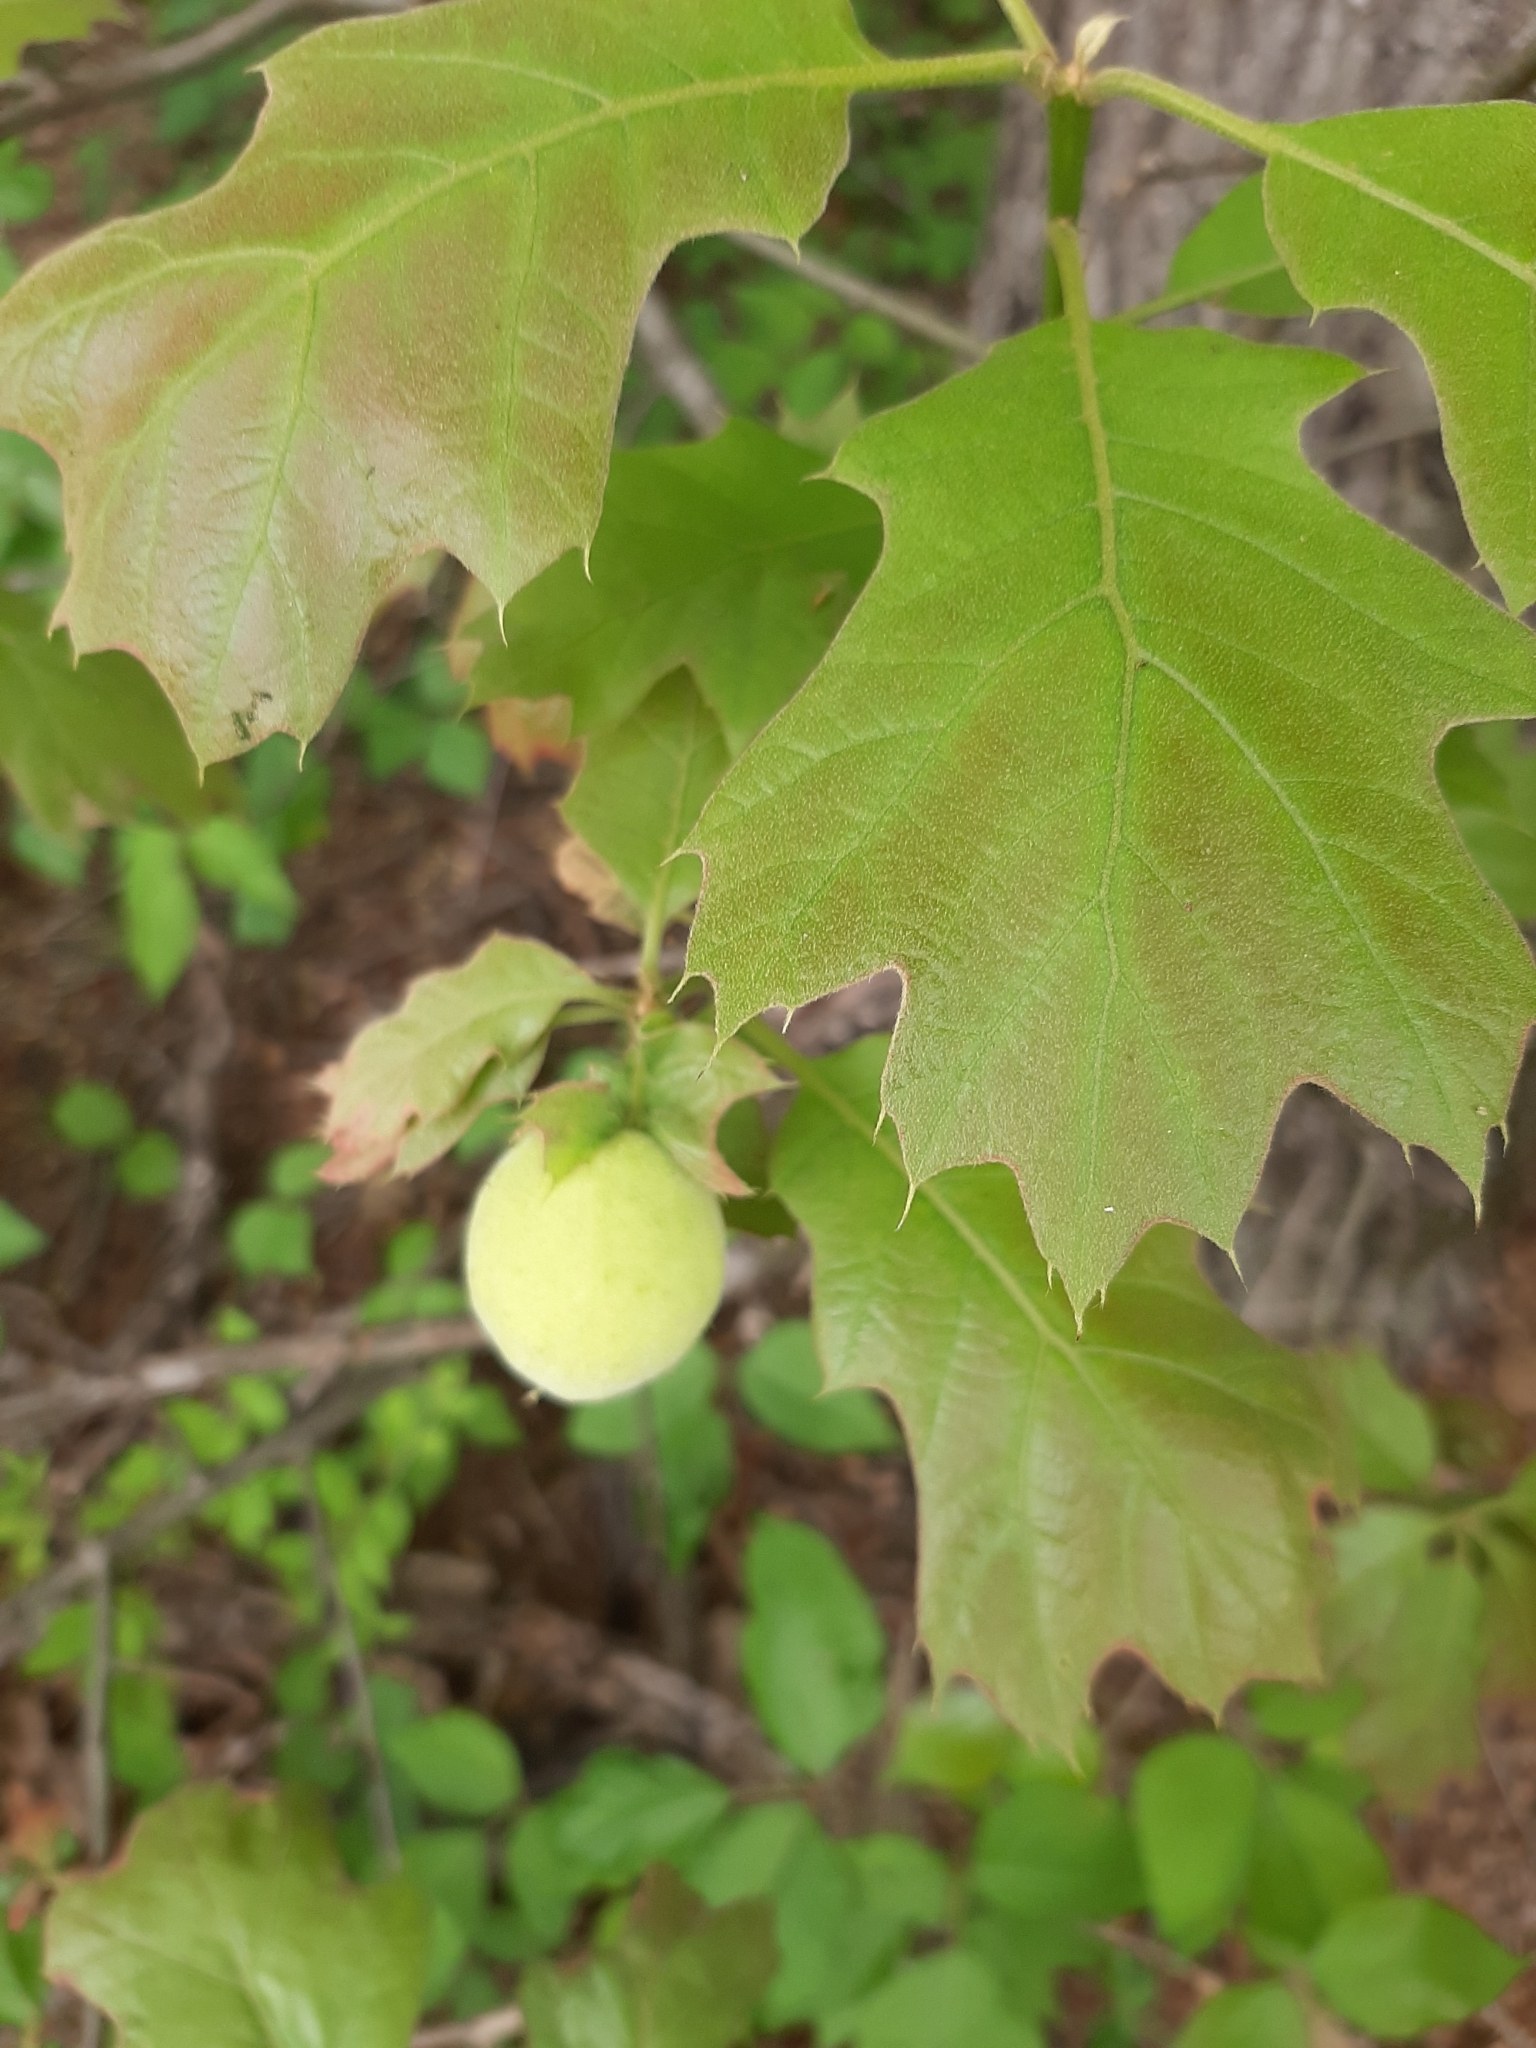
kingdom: Animalia
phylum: Arthropoda
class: Insecta
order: Hymenoptera
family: Cynipidae
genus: Amphibolips
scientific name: Amphibolips
